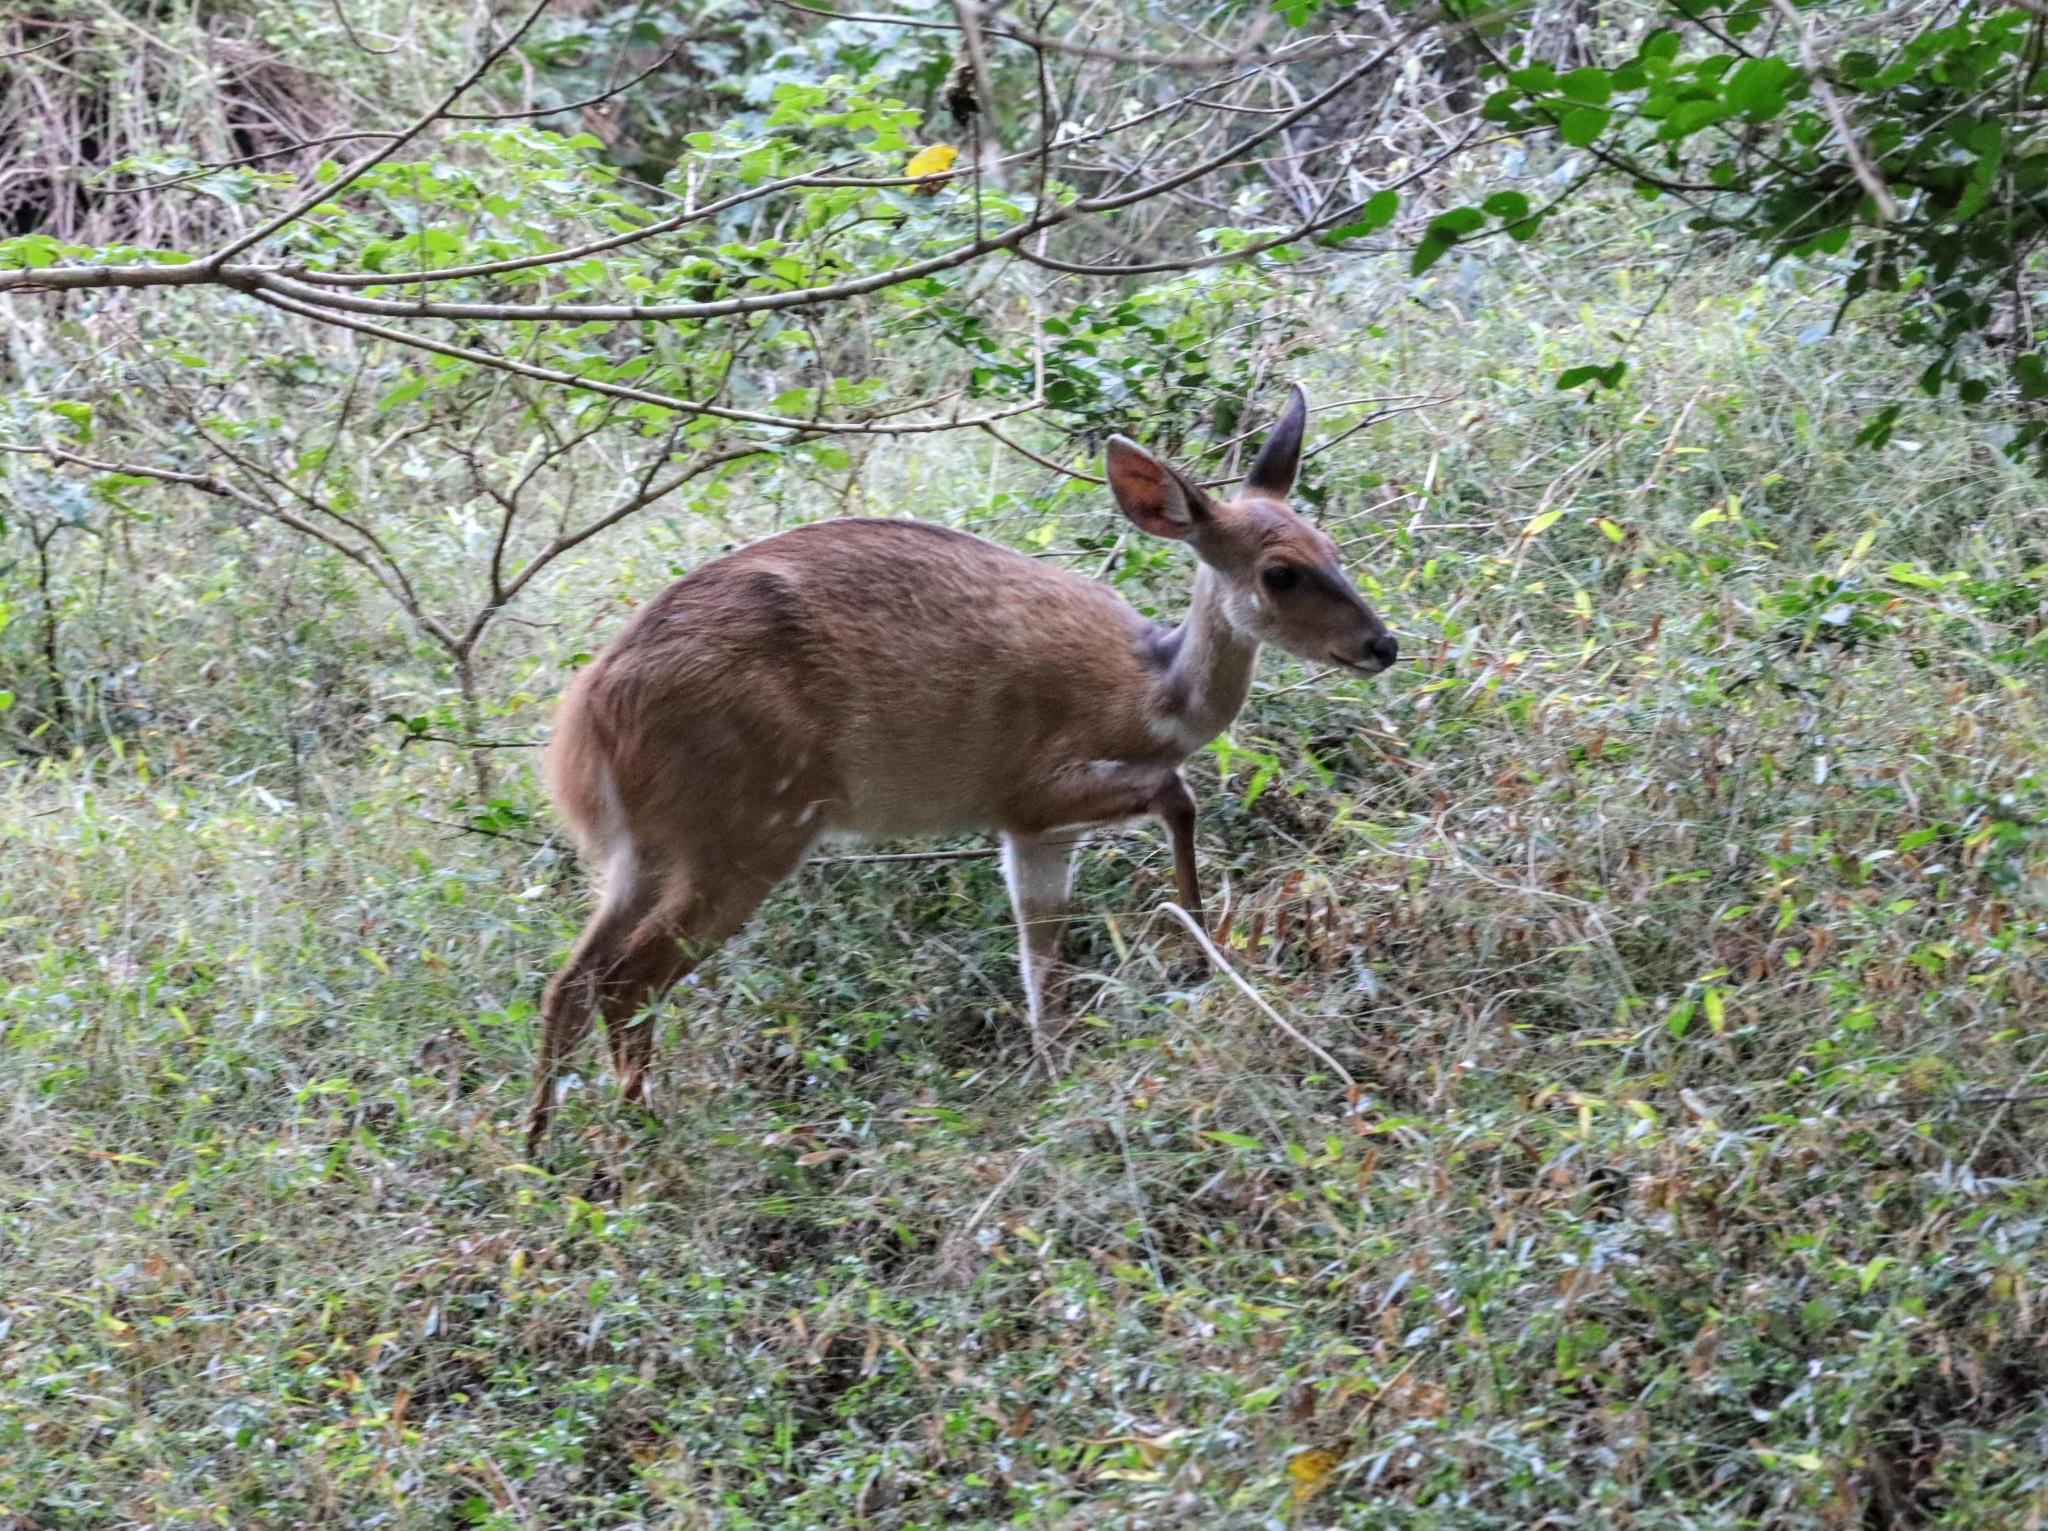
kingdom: Animalia
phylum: Chordata
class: Mammalia
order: Artiodactyla
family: Bovidae
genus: Tragelaphus
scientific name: Tragelaphus scriptus
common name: Bushbuck
